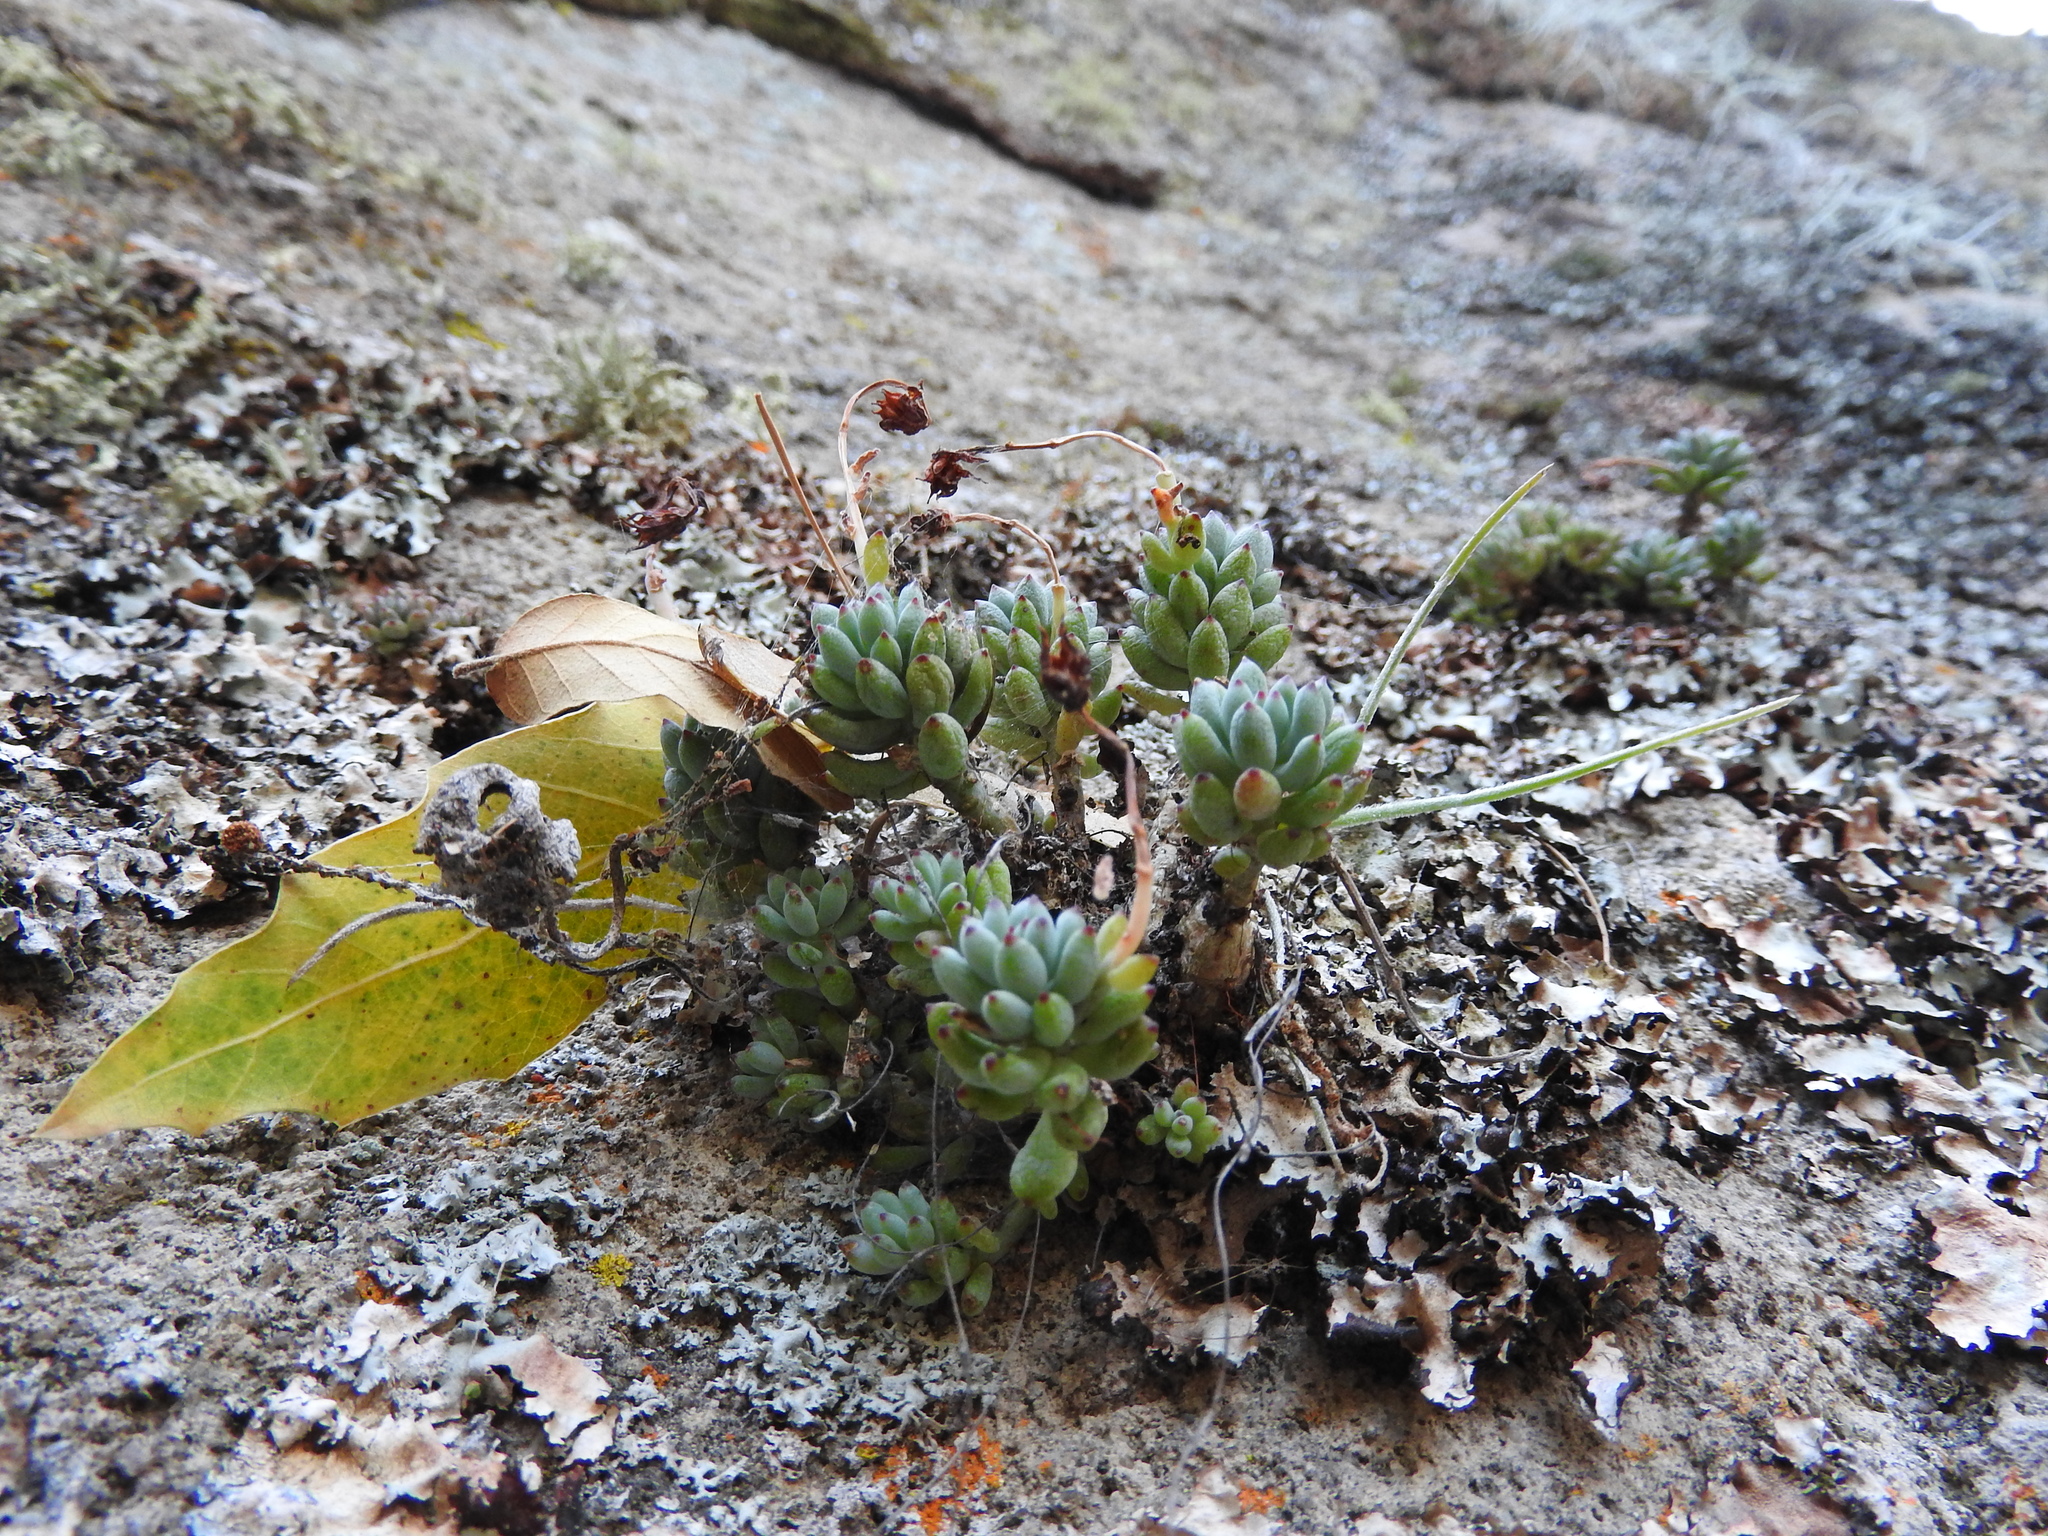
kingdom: Plantae
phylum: Tracheophyta
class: Magnoliopsida
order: Saxifragales
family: Crassulaceae
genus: Graptopetalum
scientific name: Graptopetalum pachyphyllum
